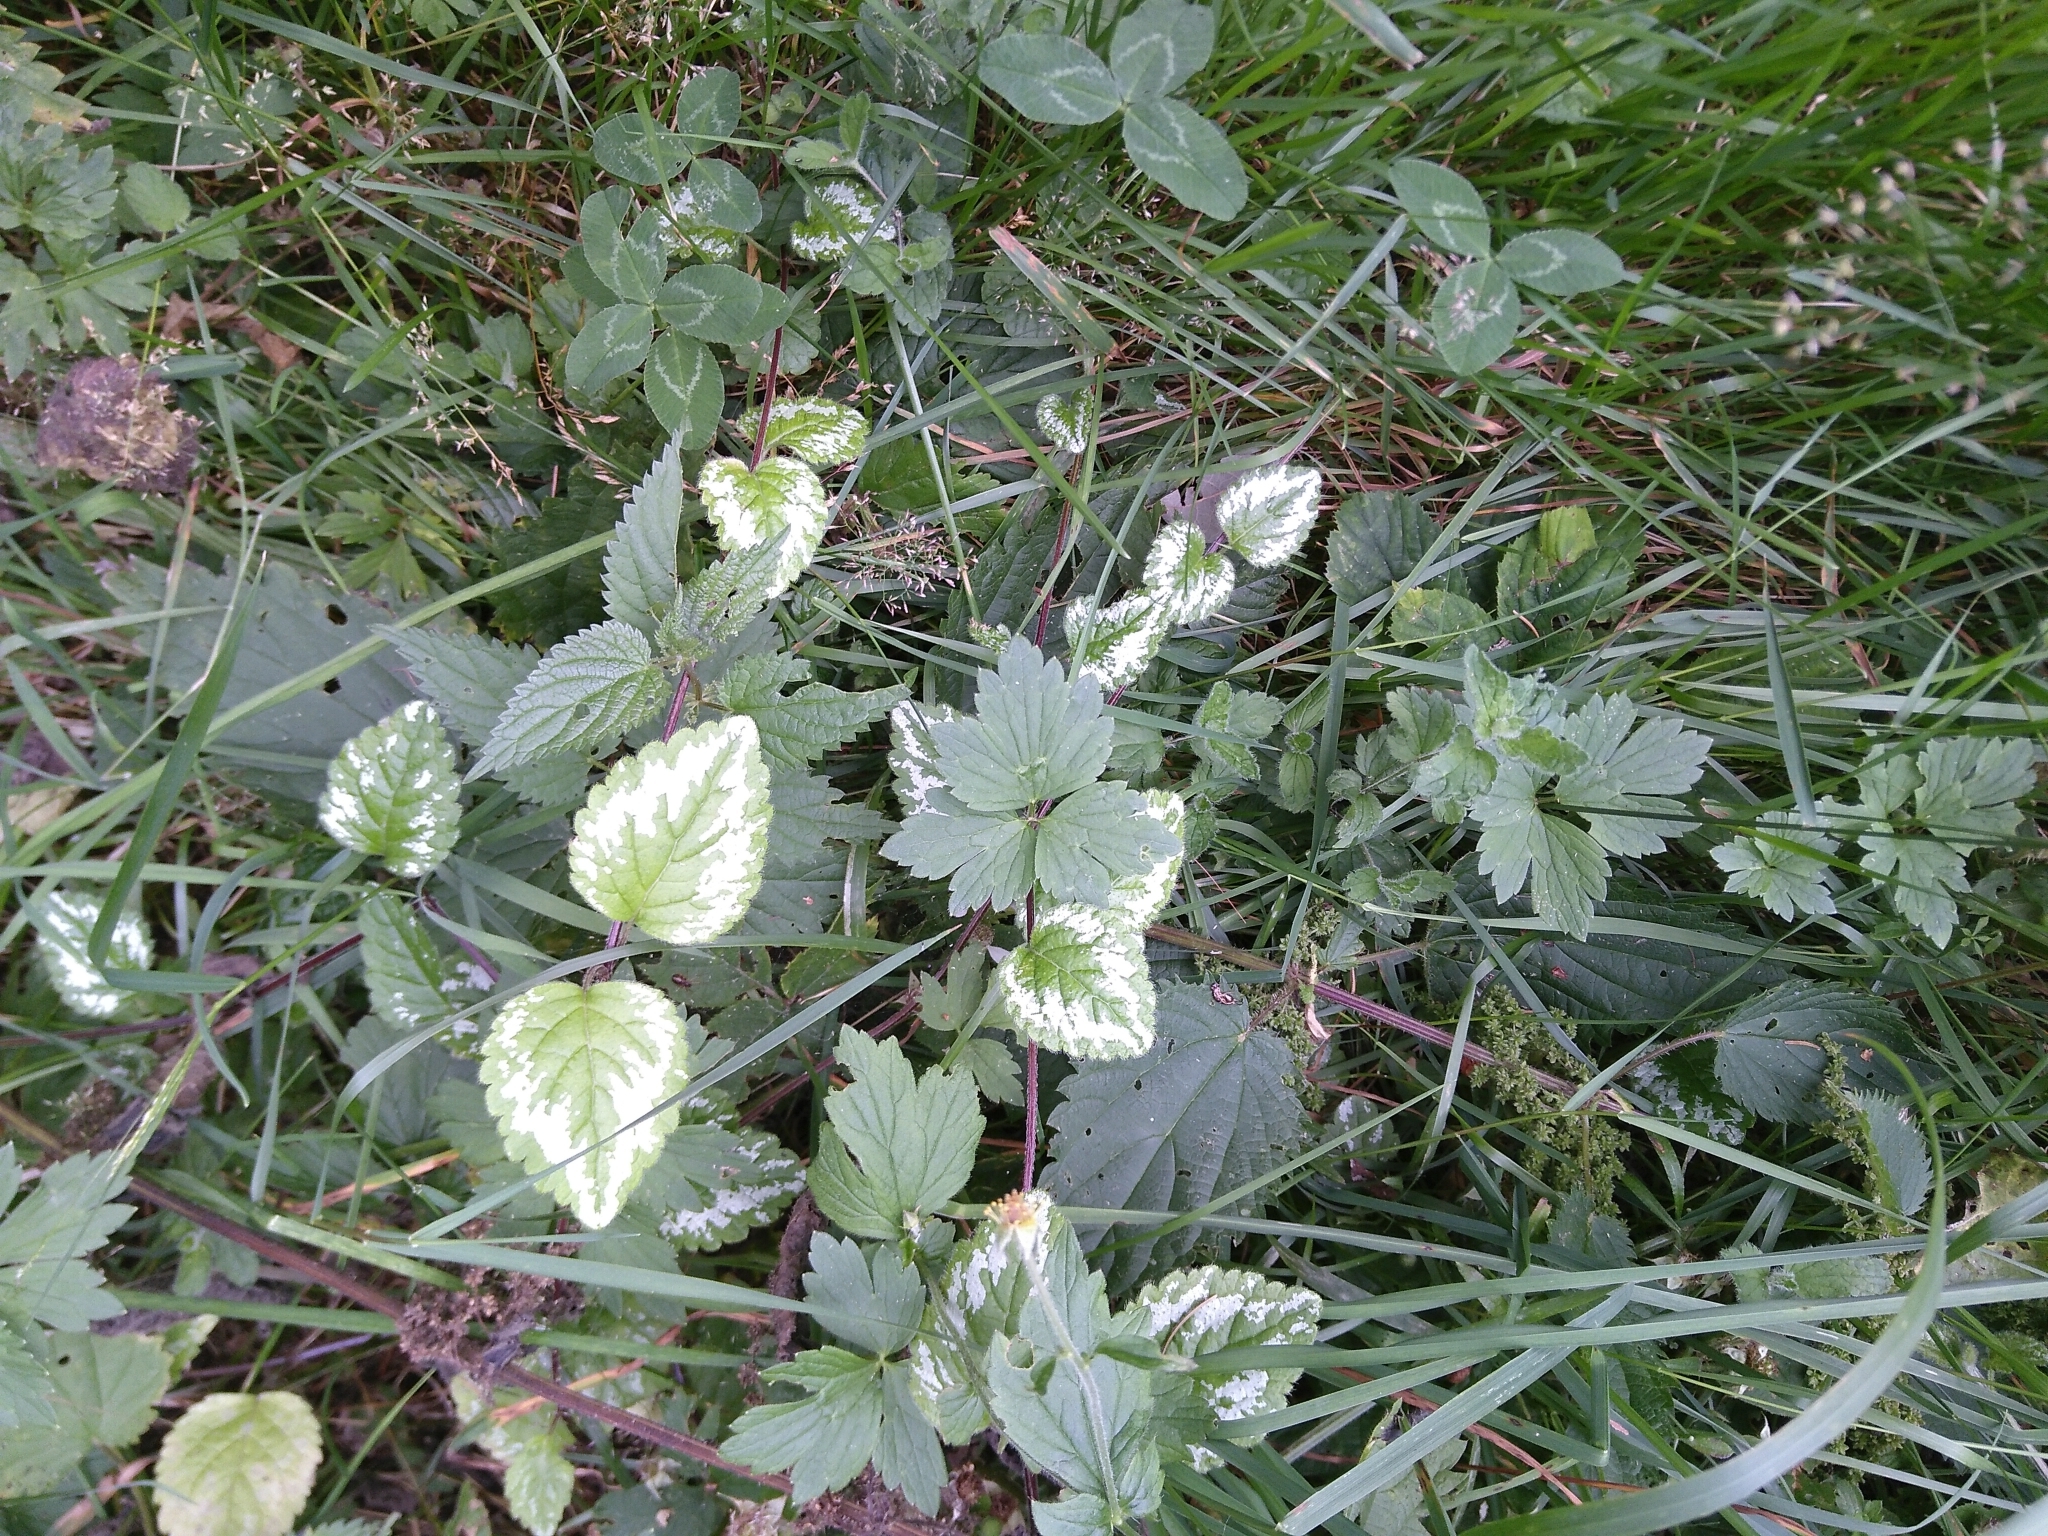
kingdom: Plantae
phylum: Tracheophyta
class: Magnoliopsida
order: Lamiales
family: Lamiaceae
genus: Lamium
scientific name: Lamium galeobdolon
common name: Yellow archangel
